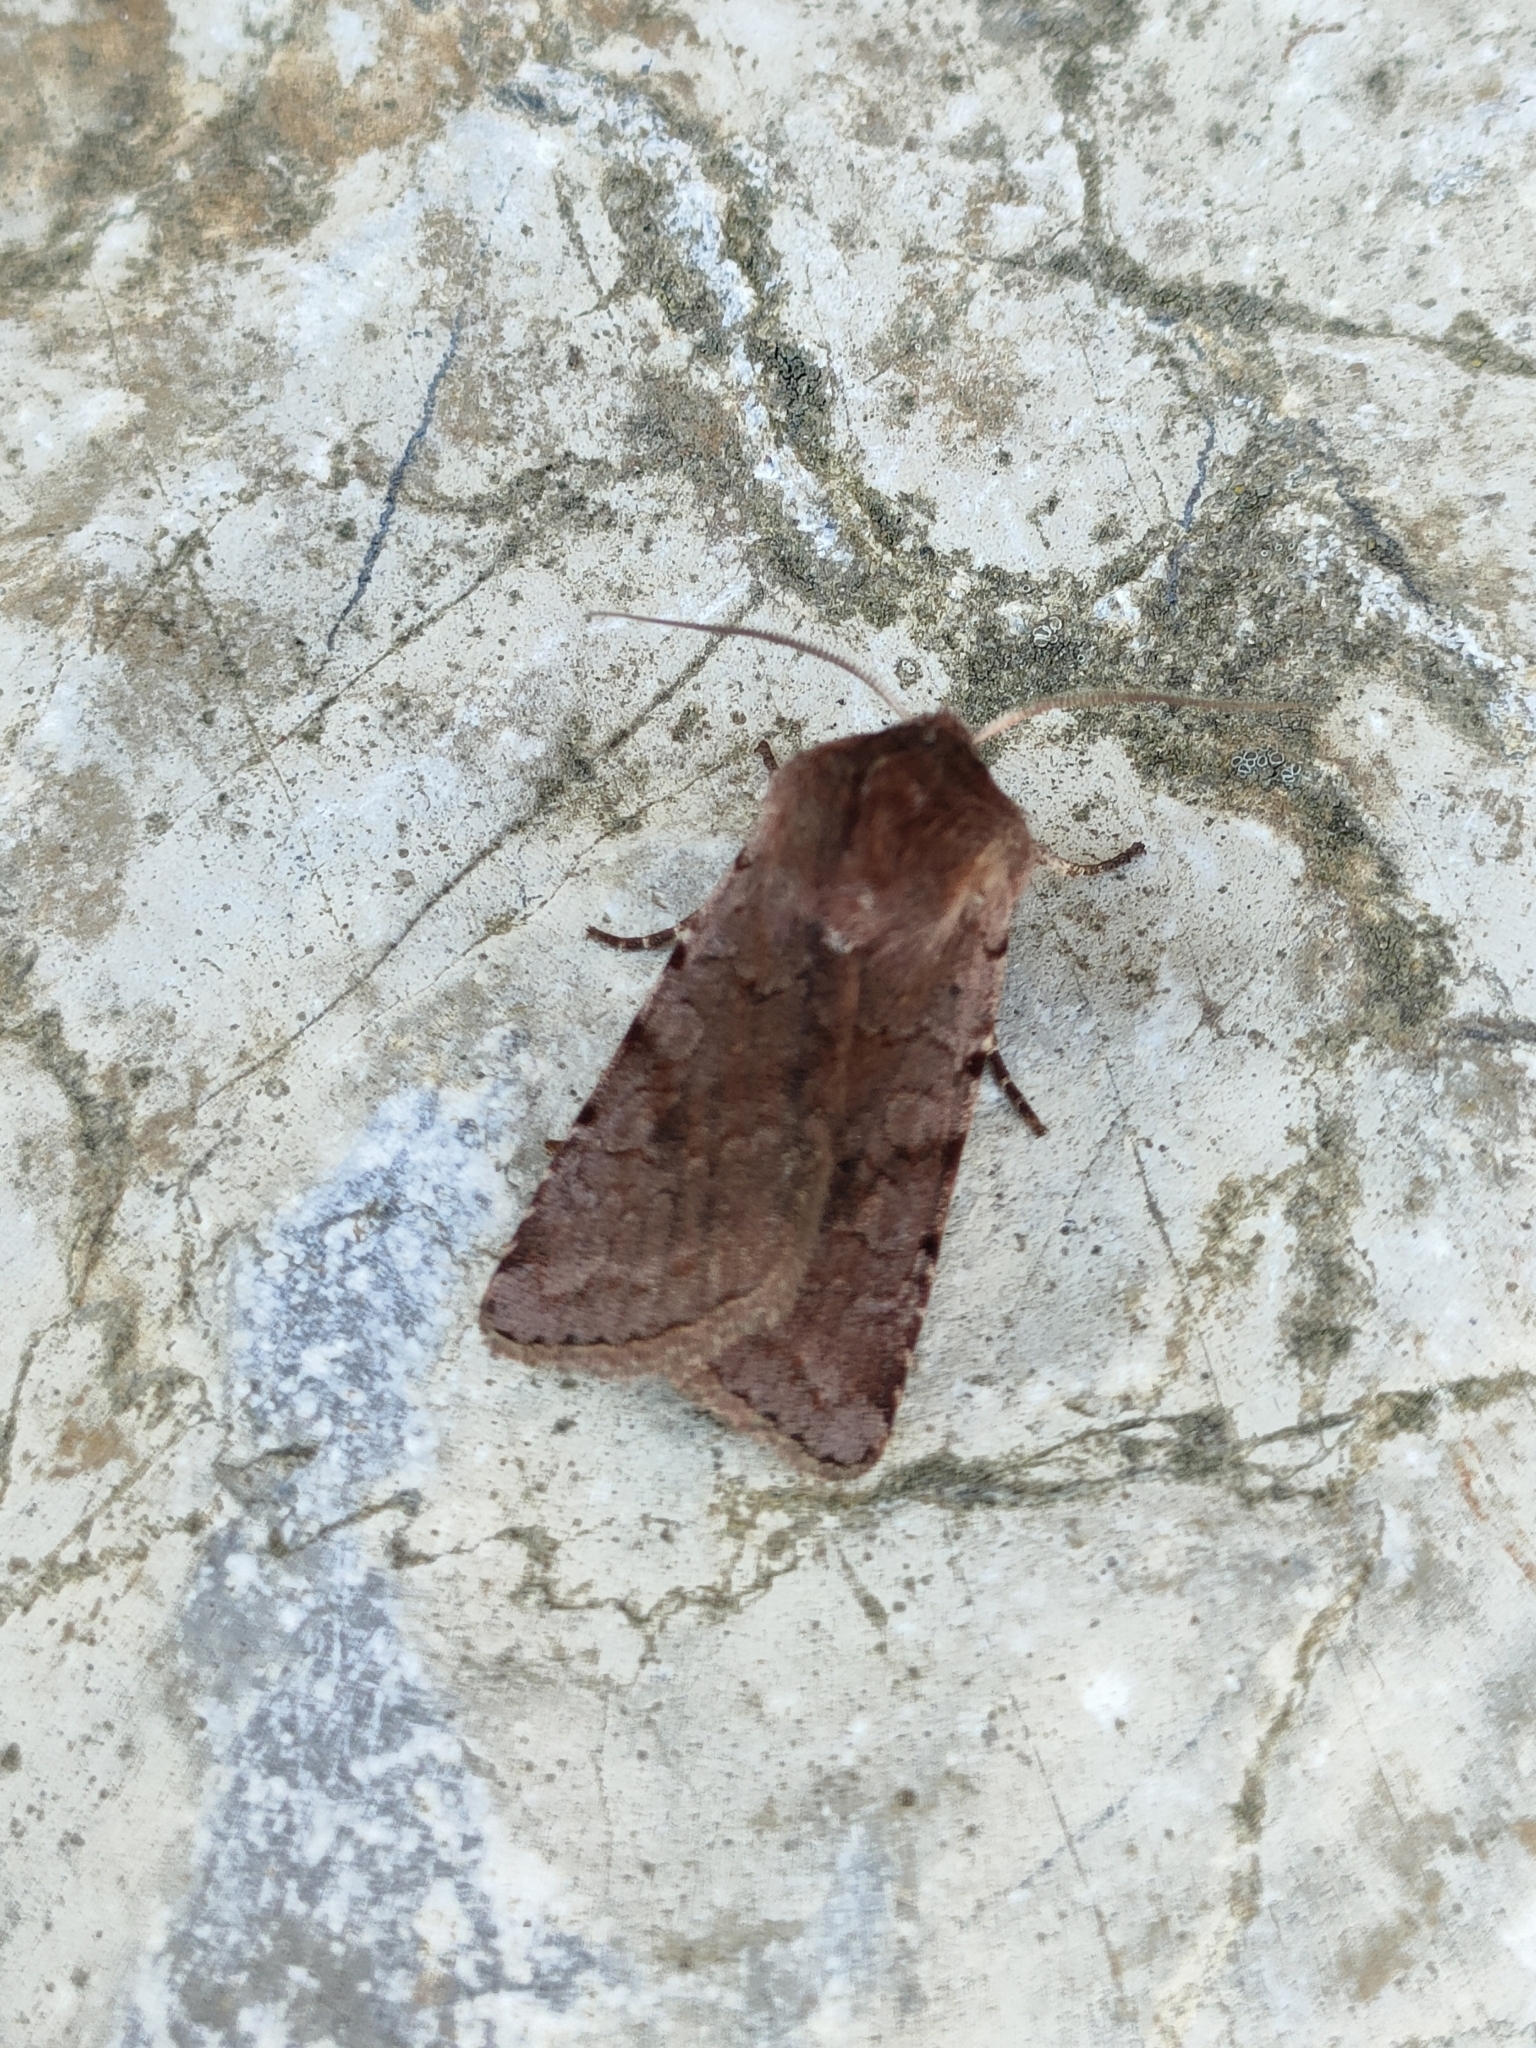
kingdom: Animalia
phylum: Arthropoda
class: Insecta
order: Lepidoptera
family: Noctuidae
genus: Cerastis
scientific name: Cerastis rubricosa
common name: Red chestnut
